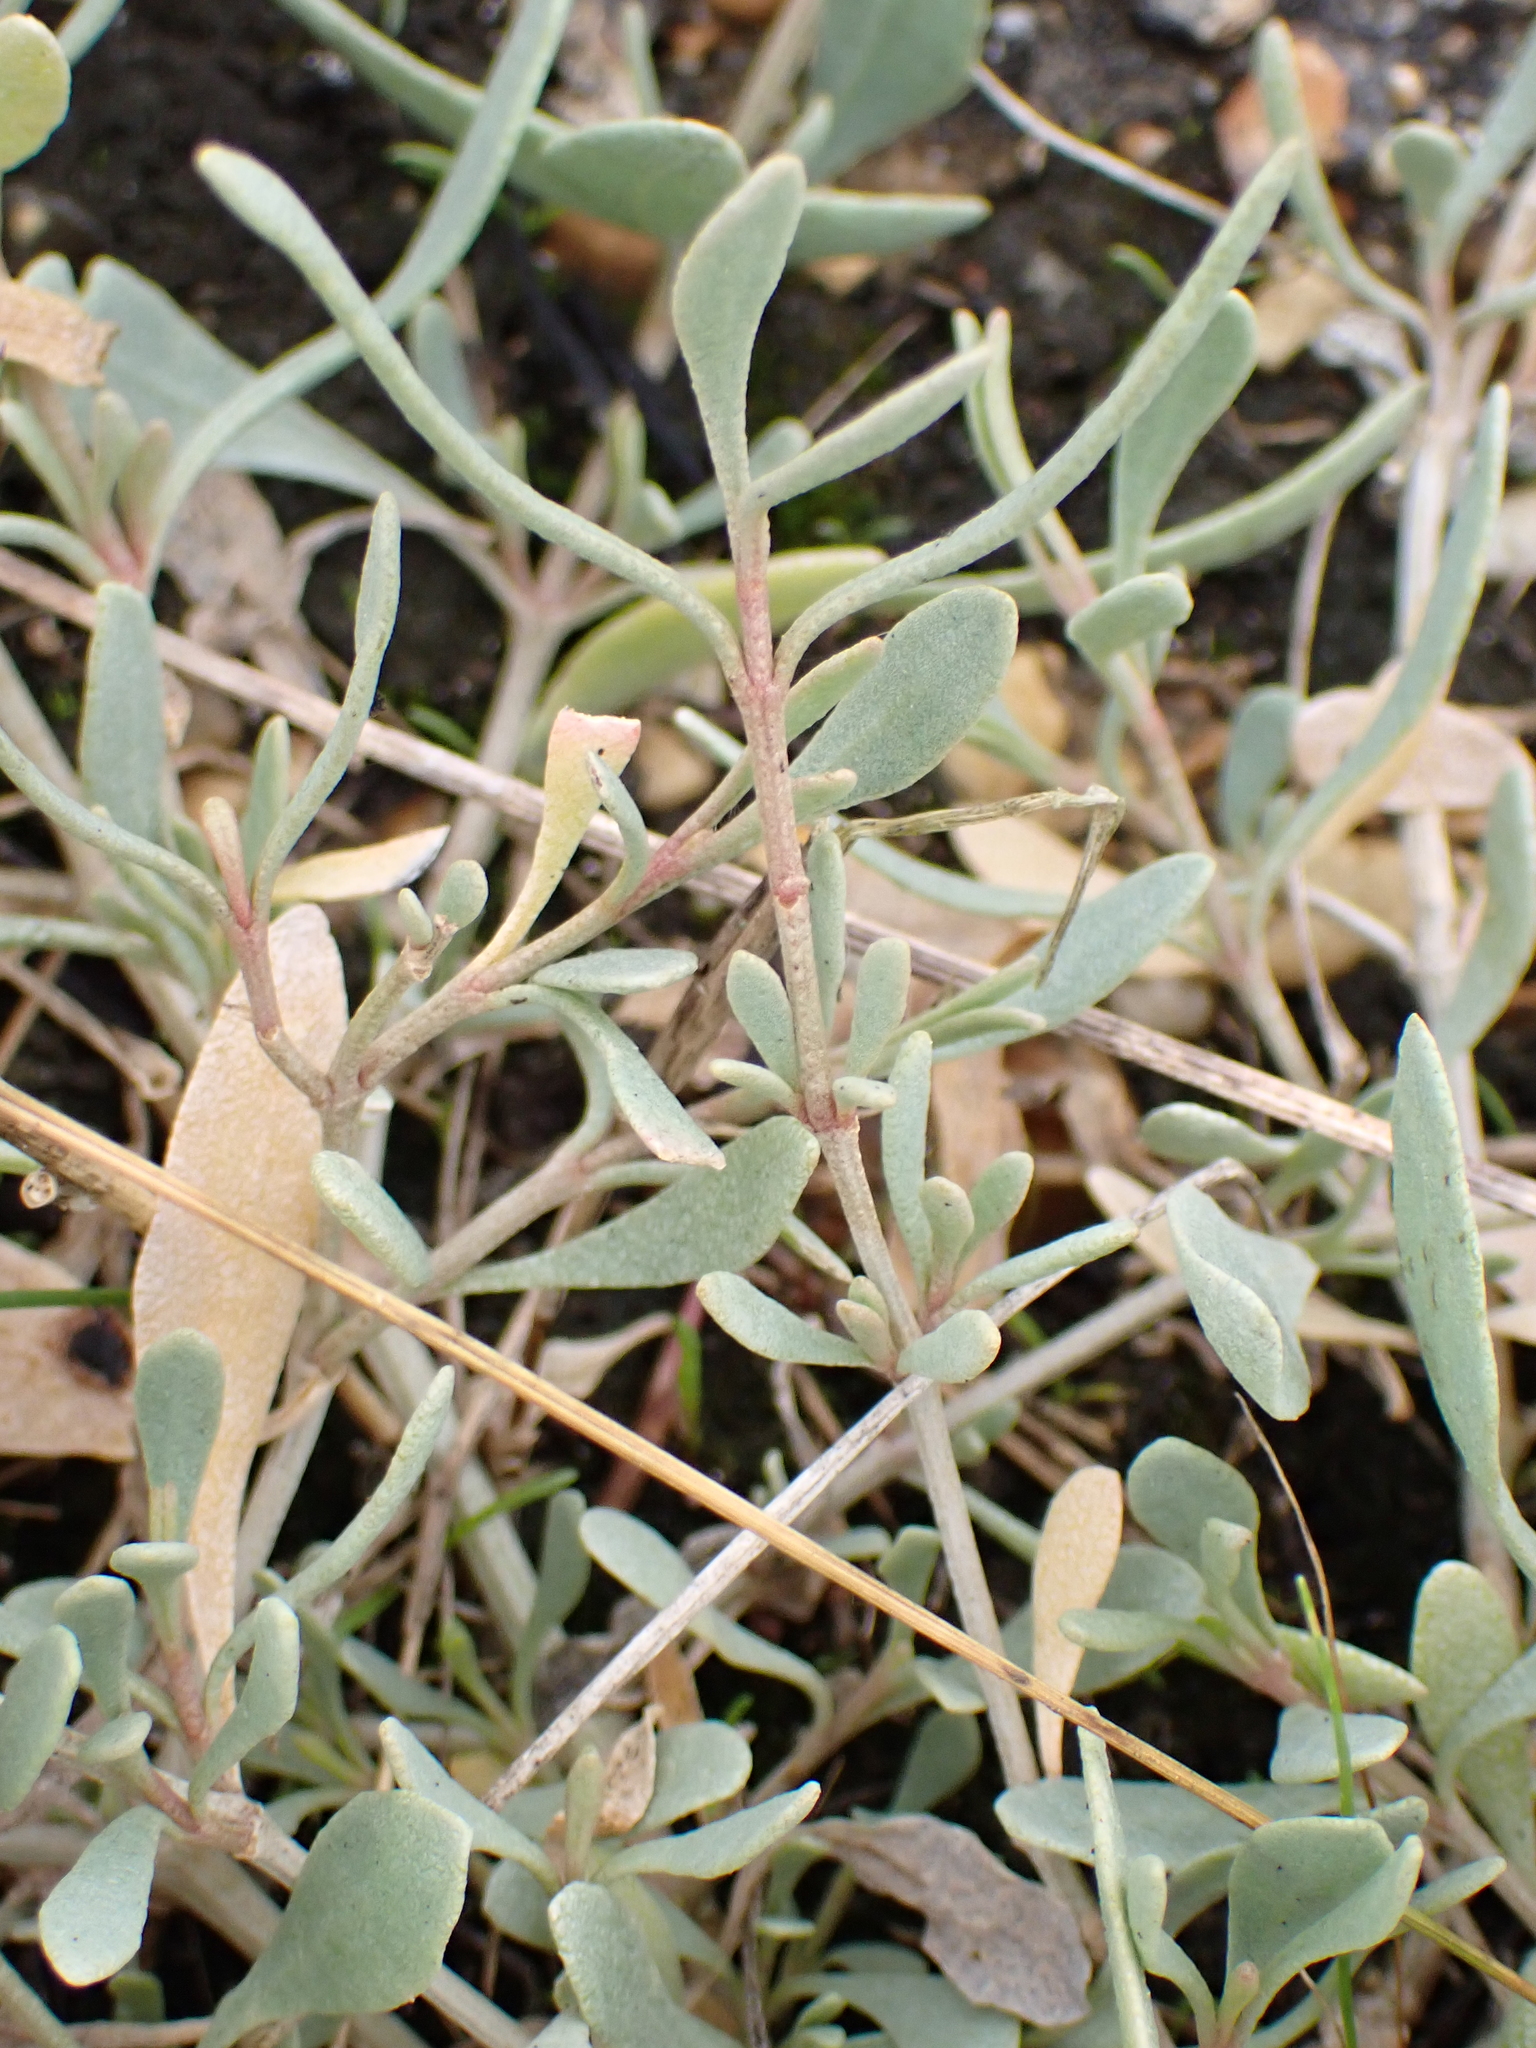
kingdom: Plantae
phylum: Tracheophyta
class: Magnoliopsida
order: Caryophyllales
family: Amaranthaceae
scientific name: Amaranthaceae
